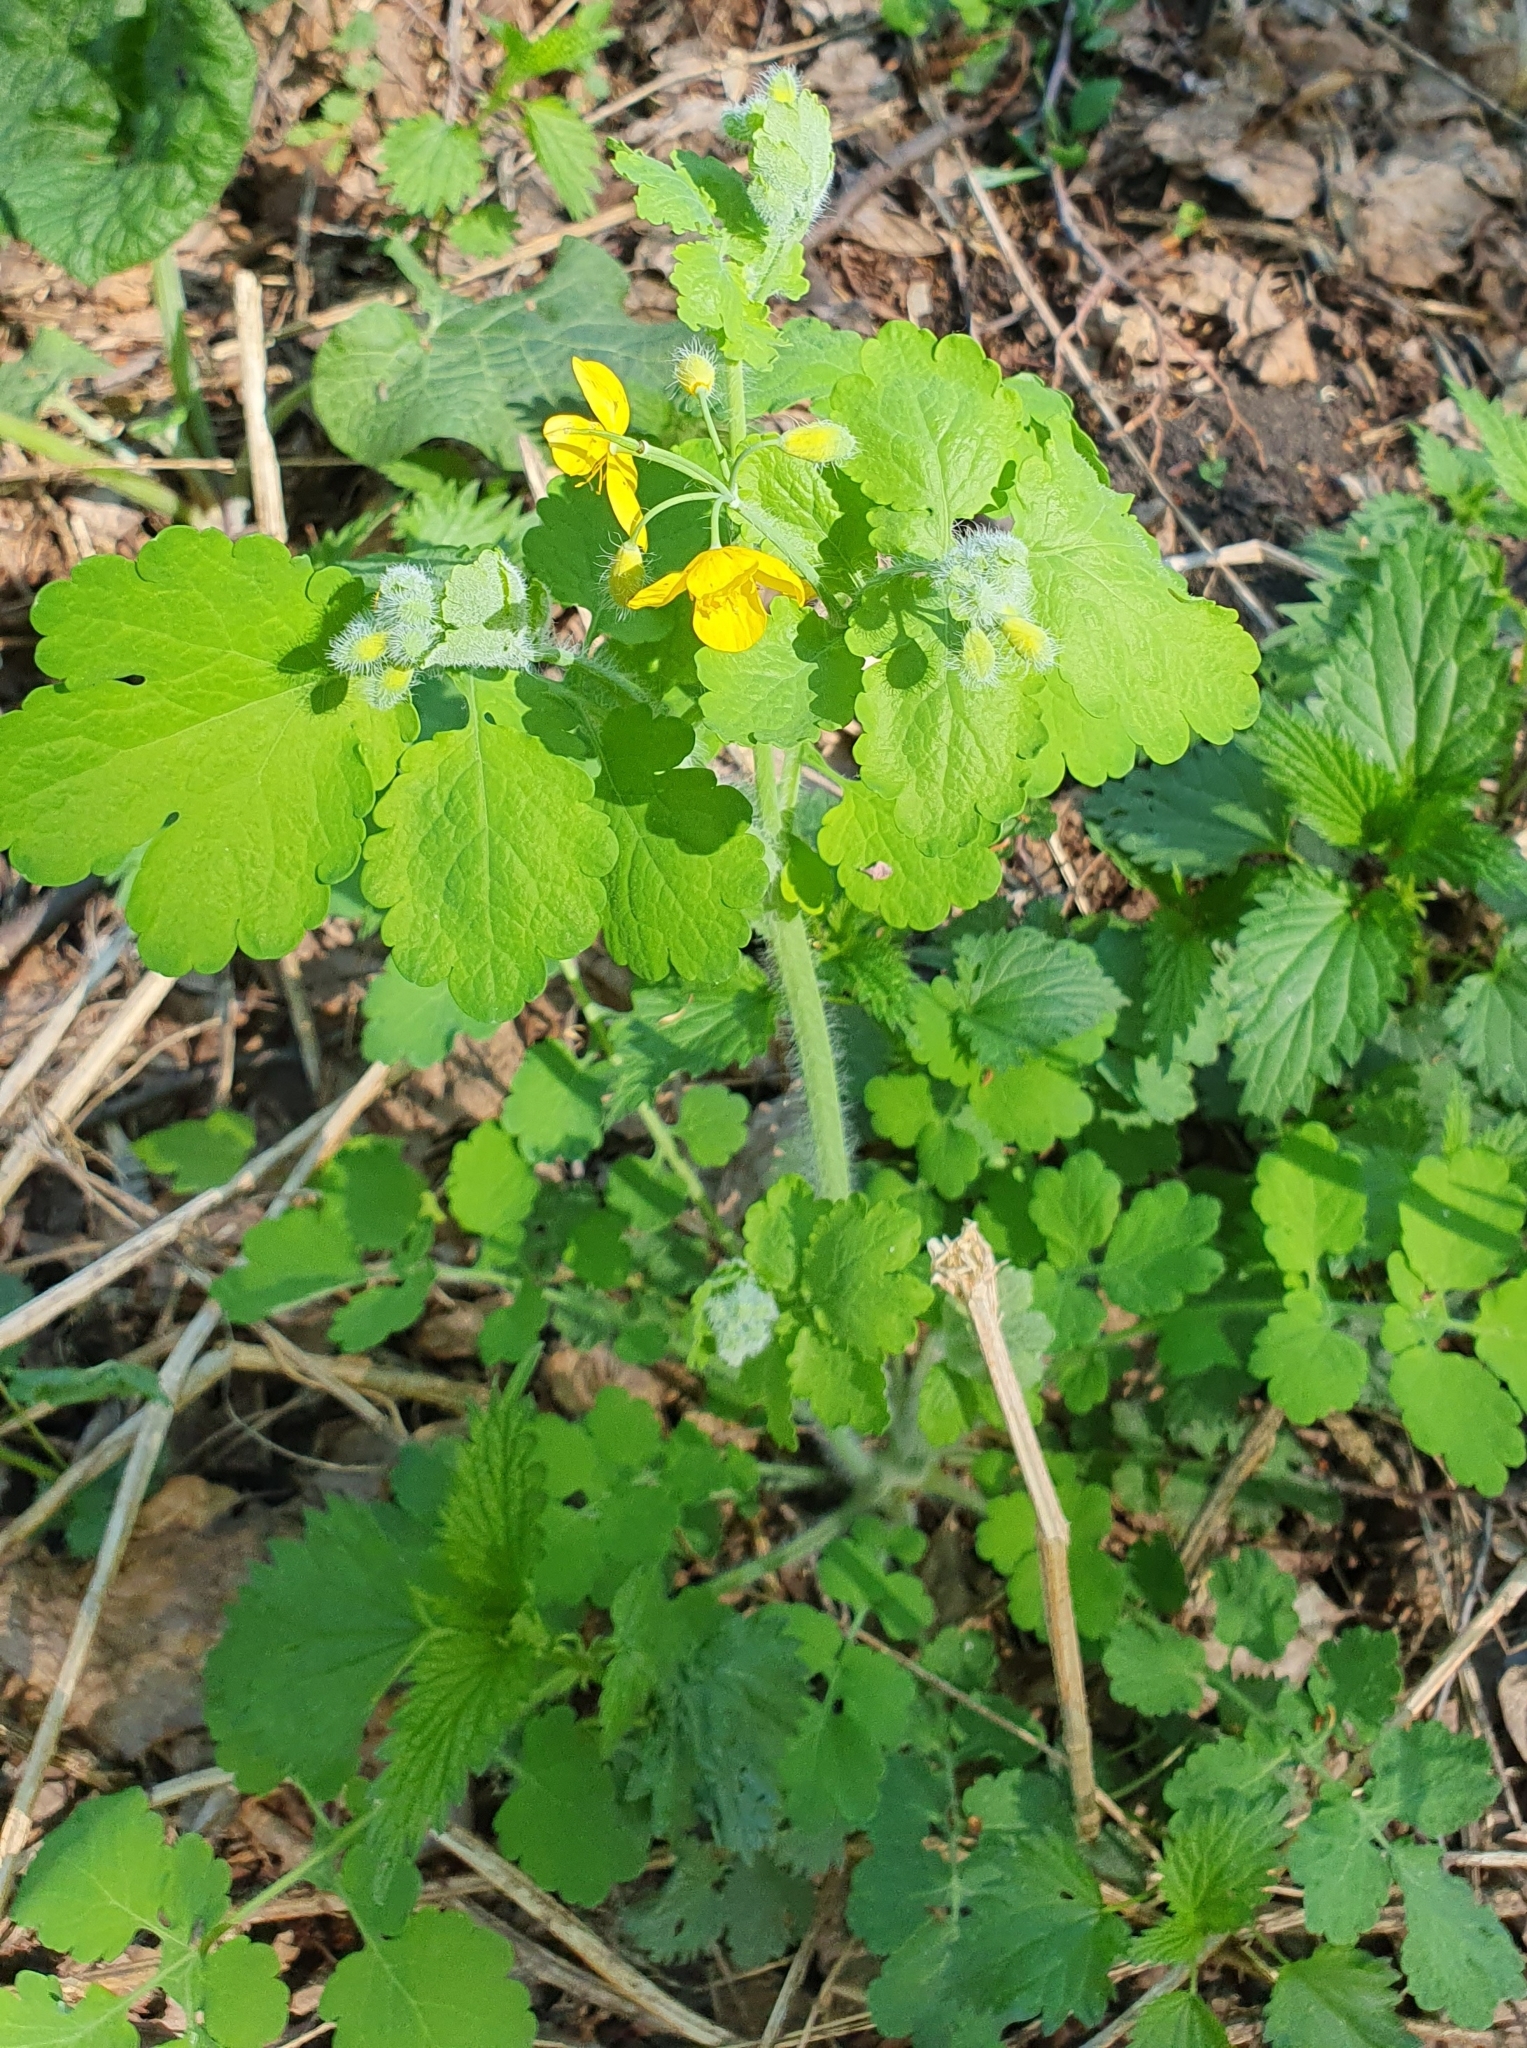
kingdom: Plantae
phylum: Tracheophyta
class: Magnoliopsida
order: Ranunculales
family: Papaveraceae
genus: Chelidonium
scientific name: Chelidonium majus
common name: Greater celandine
